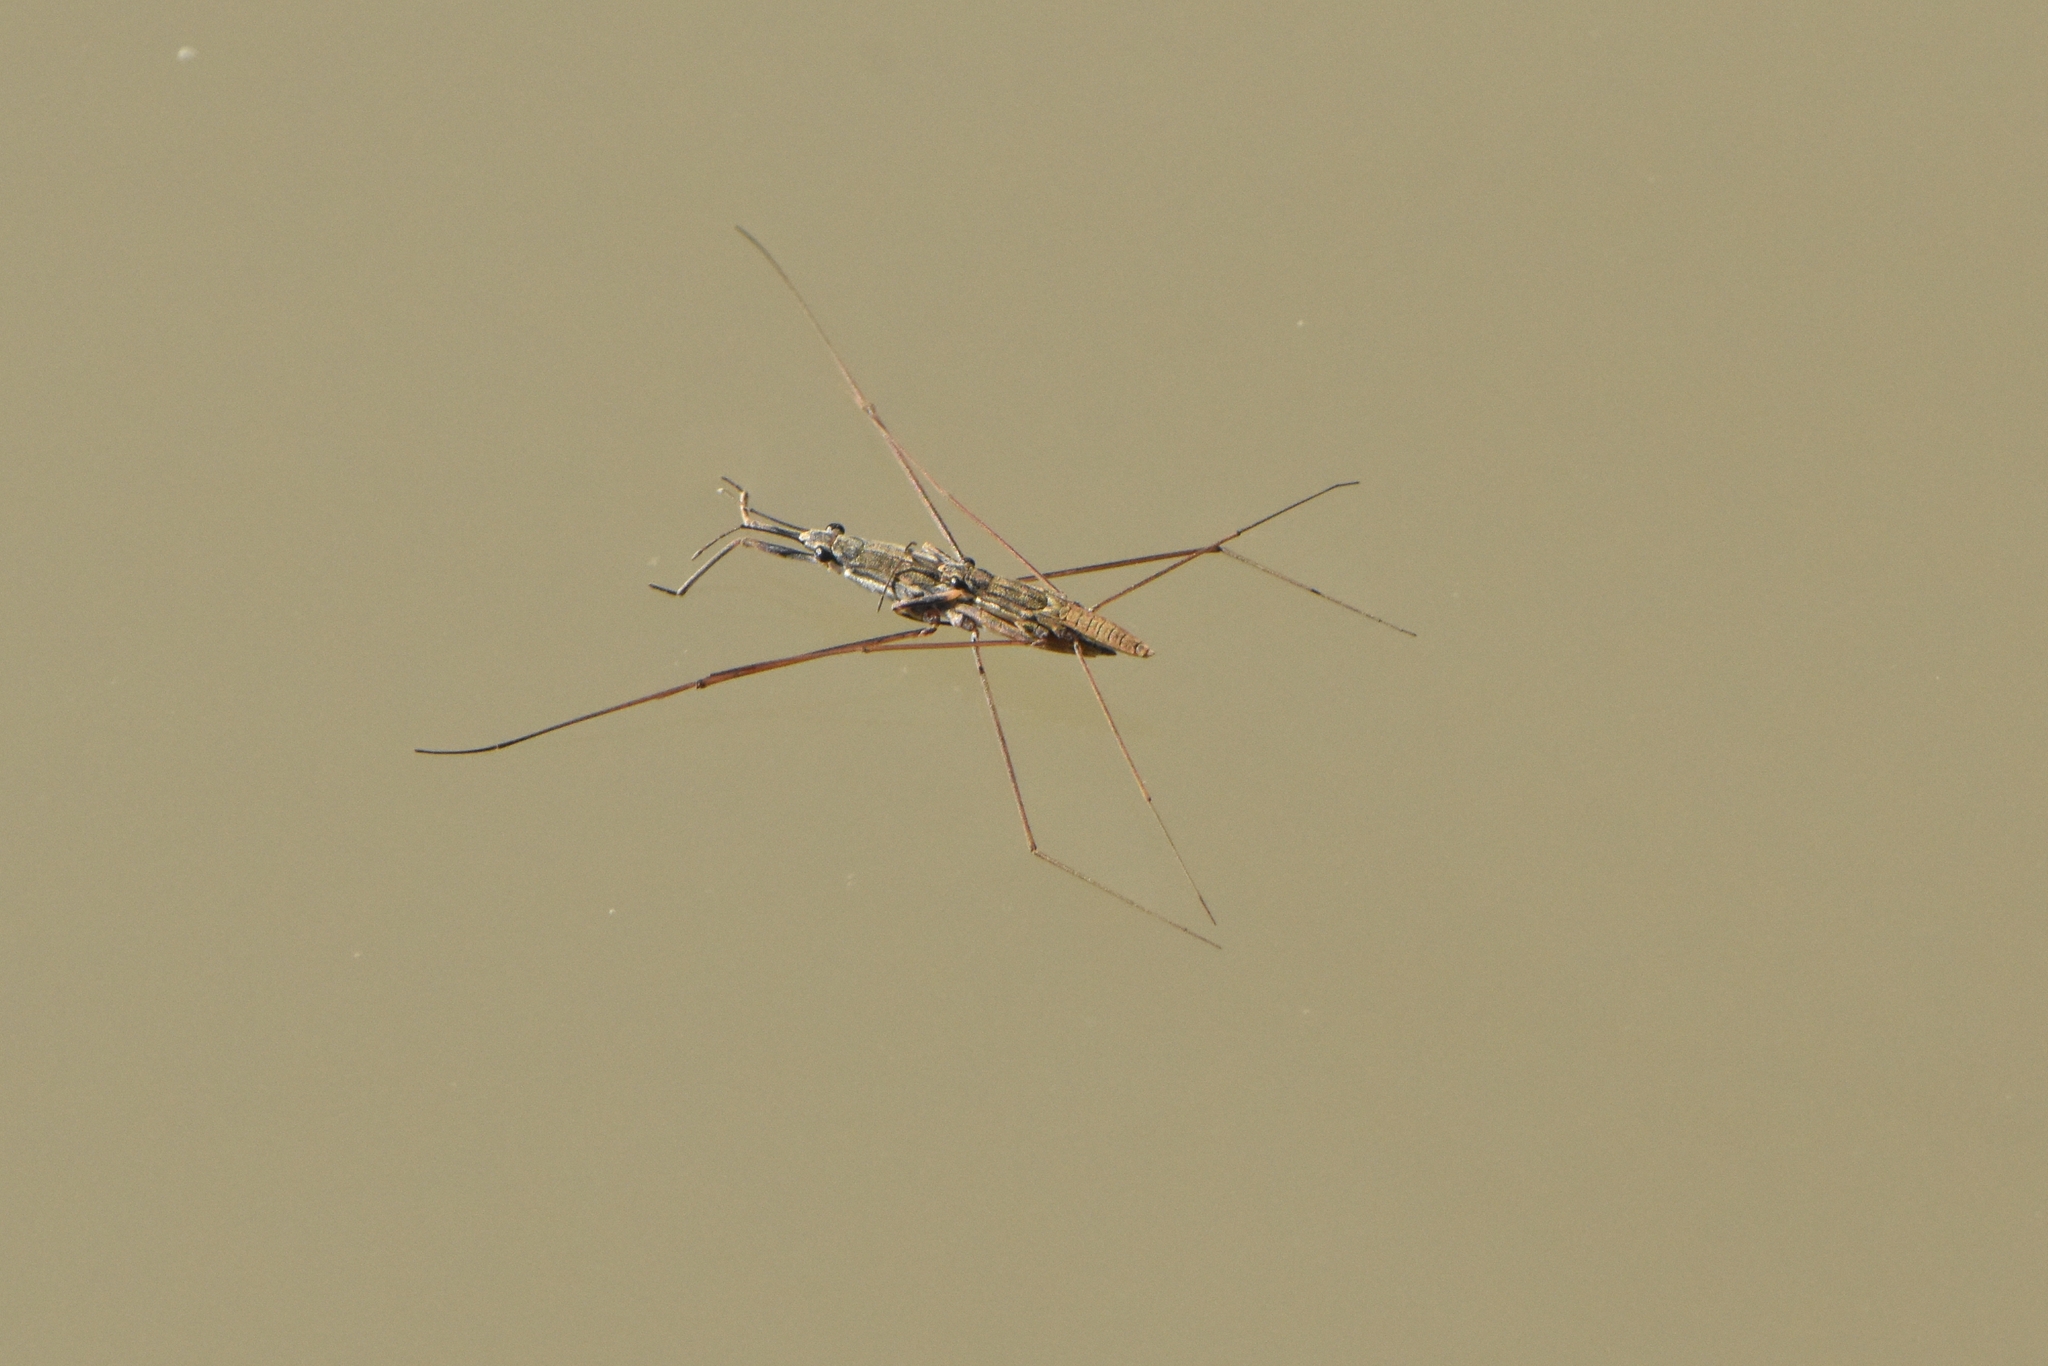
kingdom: Animalia
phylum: Arthropoda
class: Insecta
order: Hemiptera
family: Gerridae
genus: Aquarius
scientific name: Aquarius cinereus
